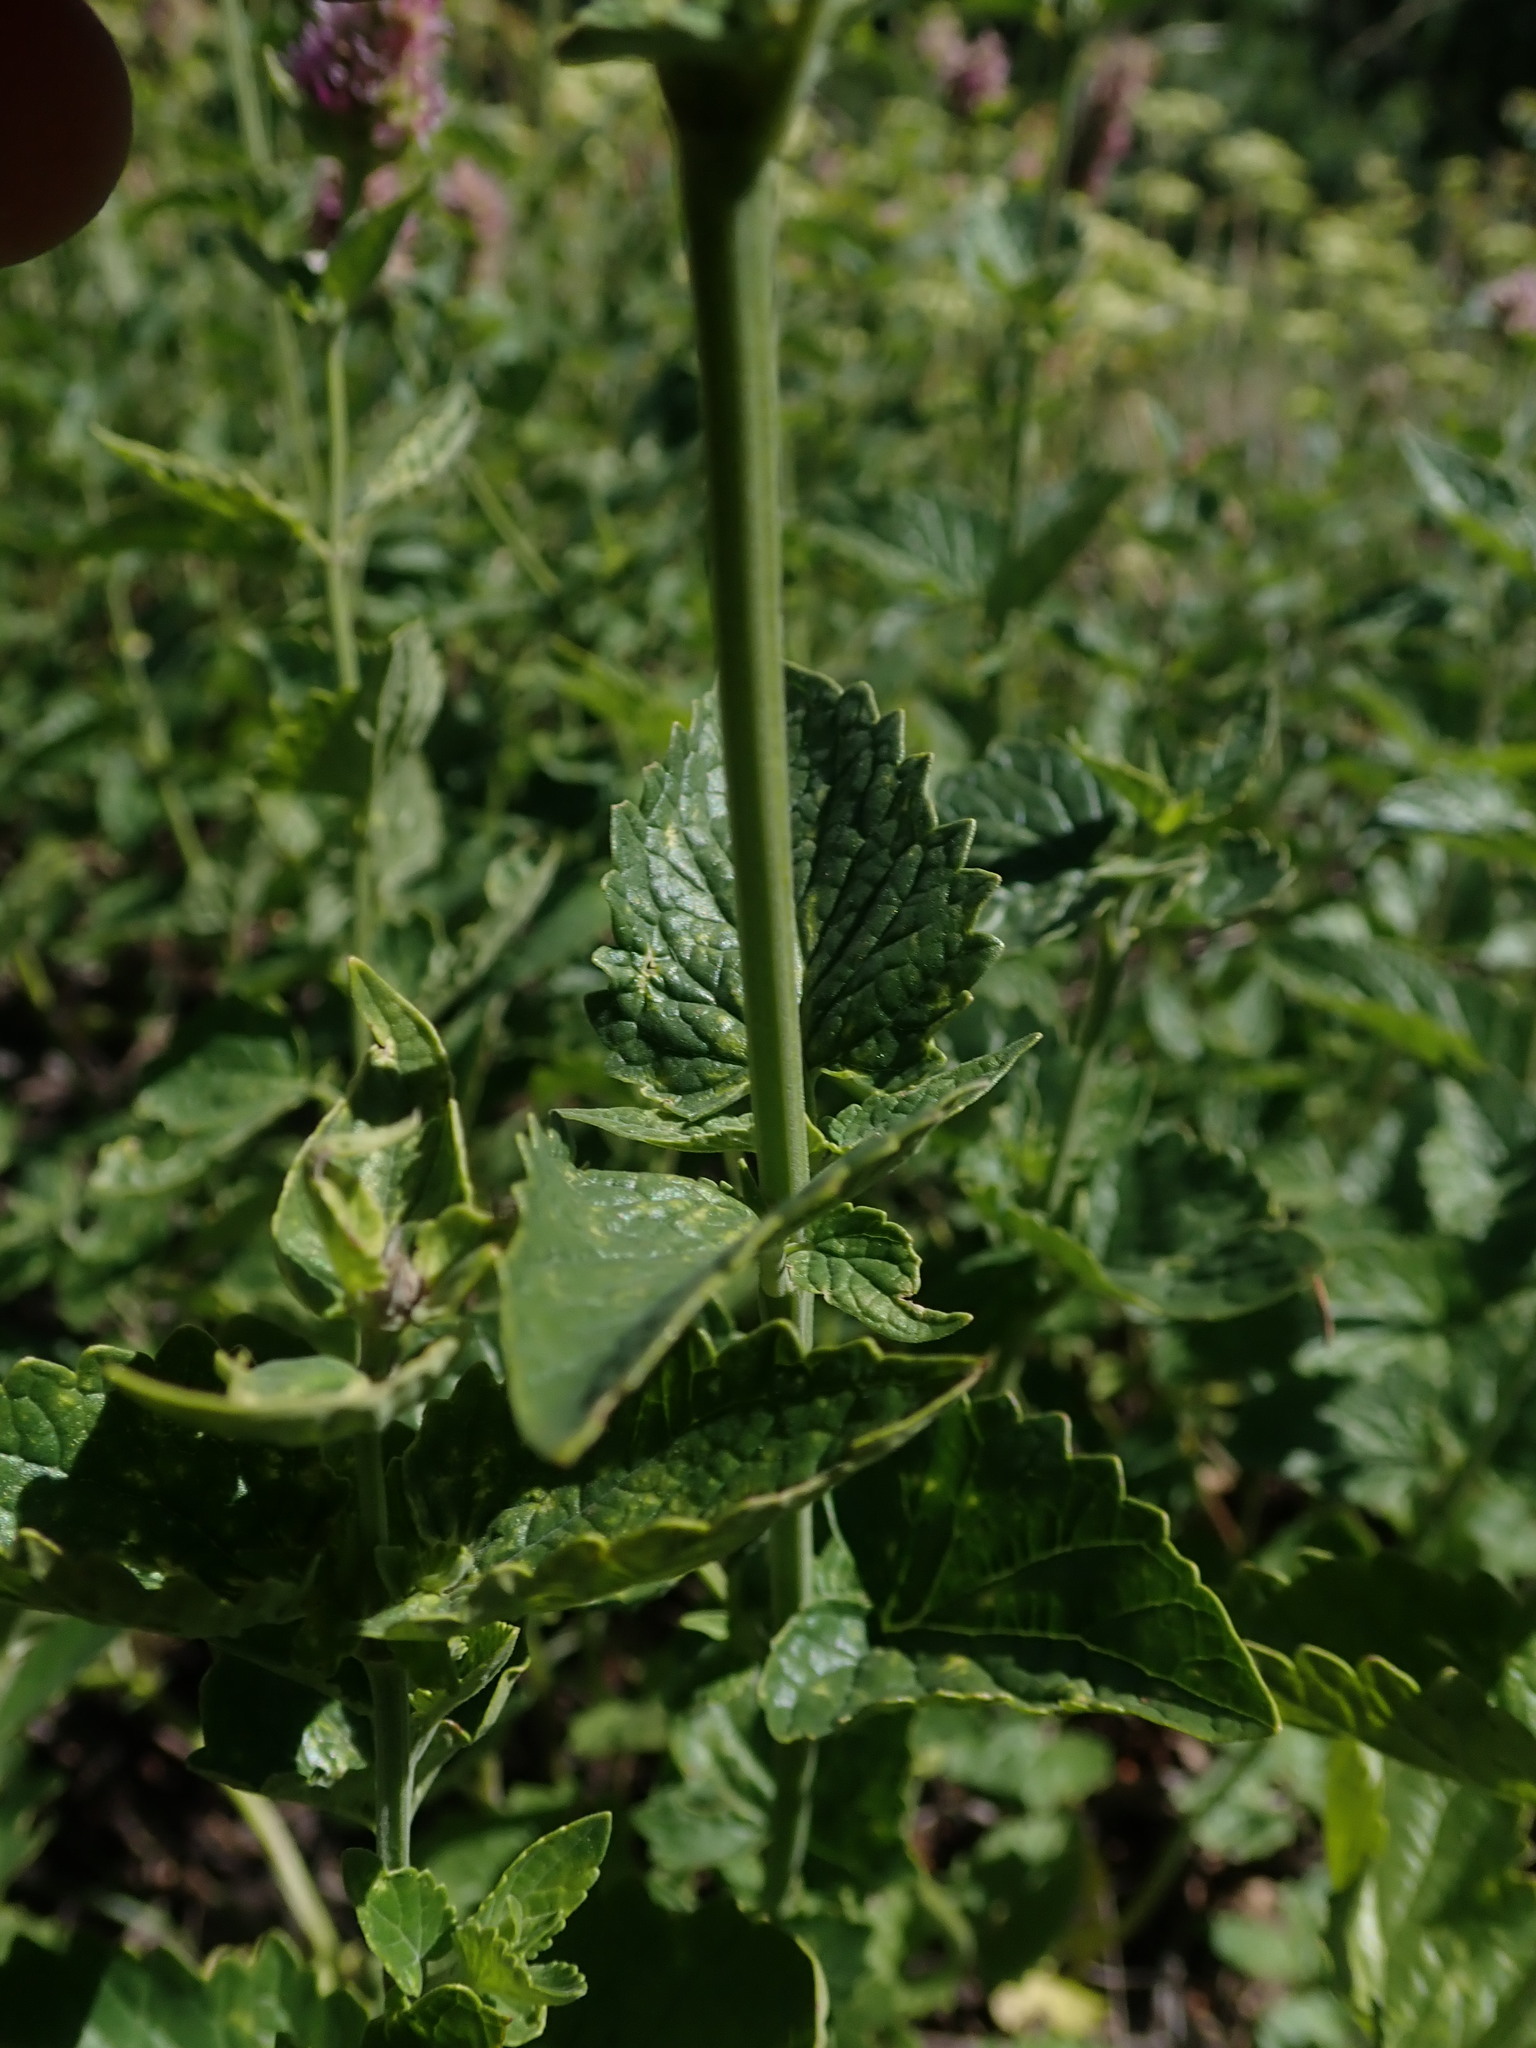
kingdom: Plantae
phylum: Tracheophyta
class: Magnoliopsida
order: Lamiales
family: Lamiaceae
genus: Agastache
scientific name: Agastache urticifolia
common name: Horsemint giant hyssop
